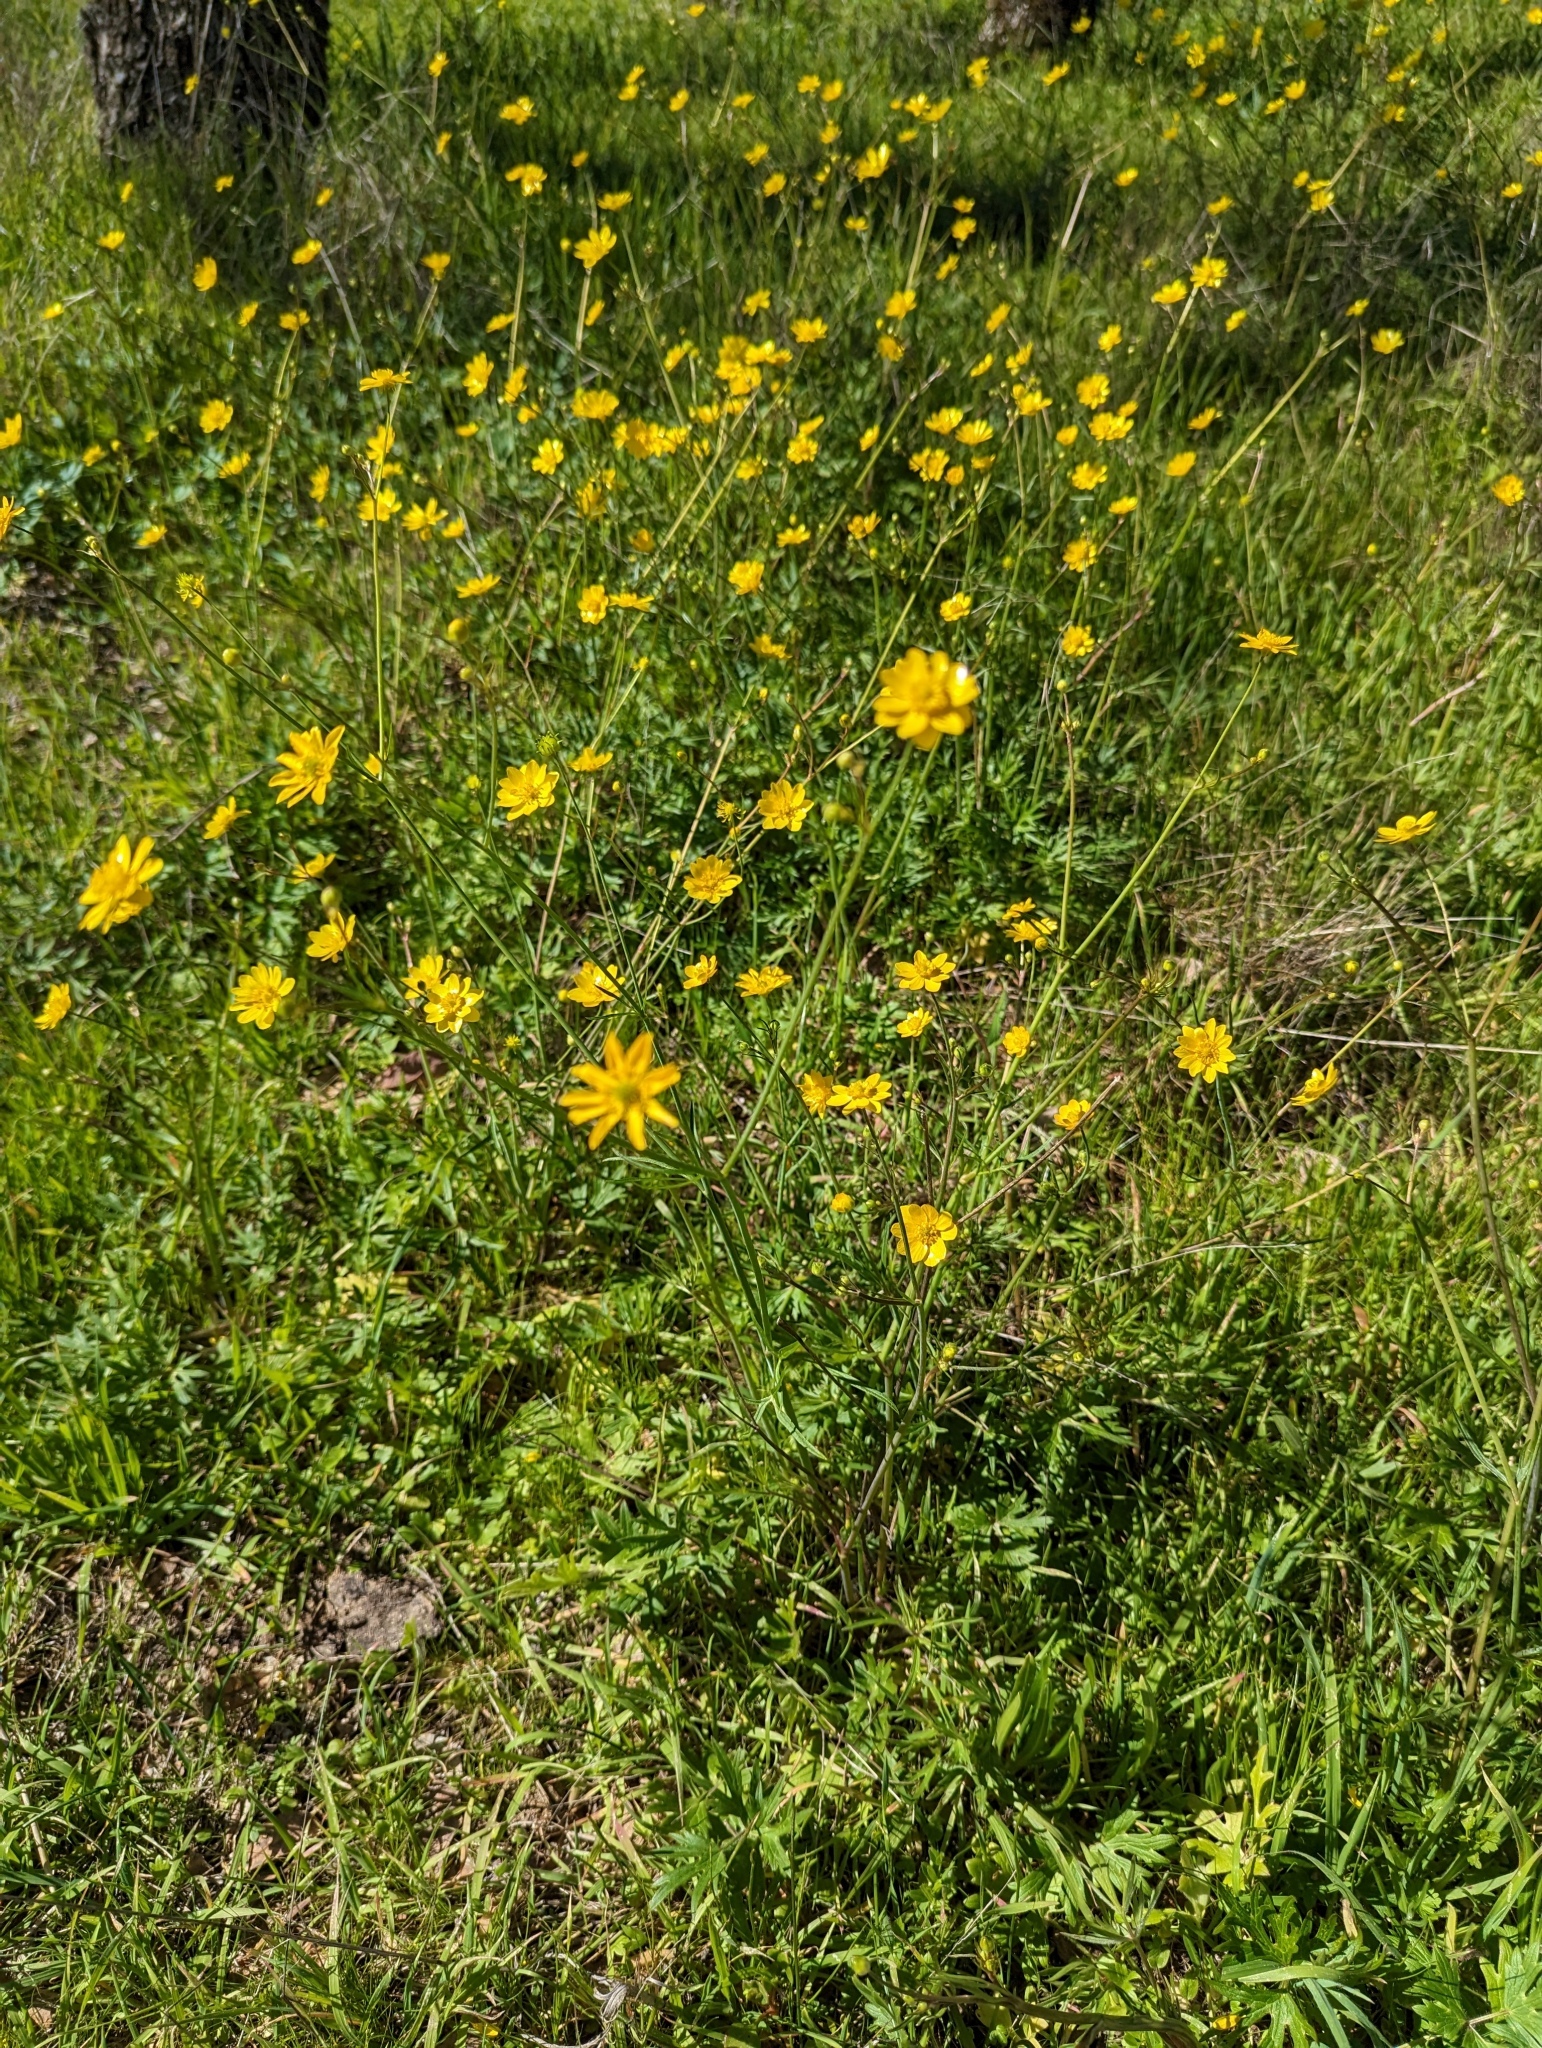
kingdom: Plantae
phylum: Tracheophyta
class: Magnoliopsida
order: Ranunculales
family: Ranunculaceae
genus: Ranunculus
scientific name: Ranunculus californicus
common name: California buttercup
